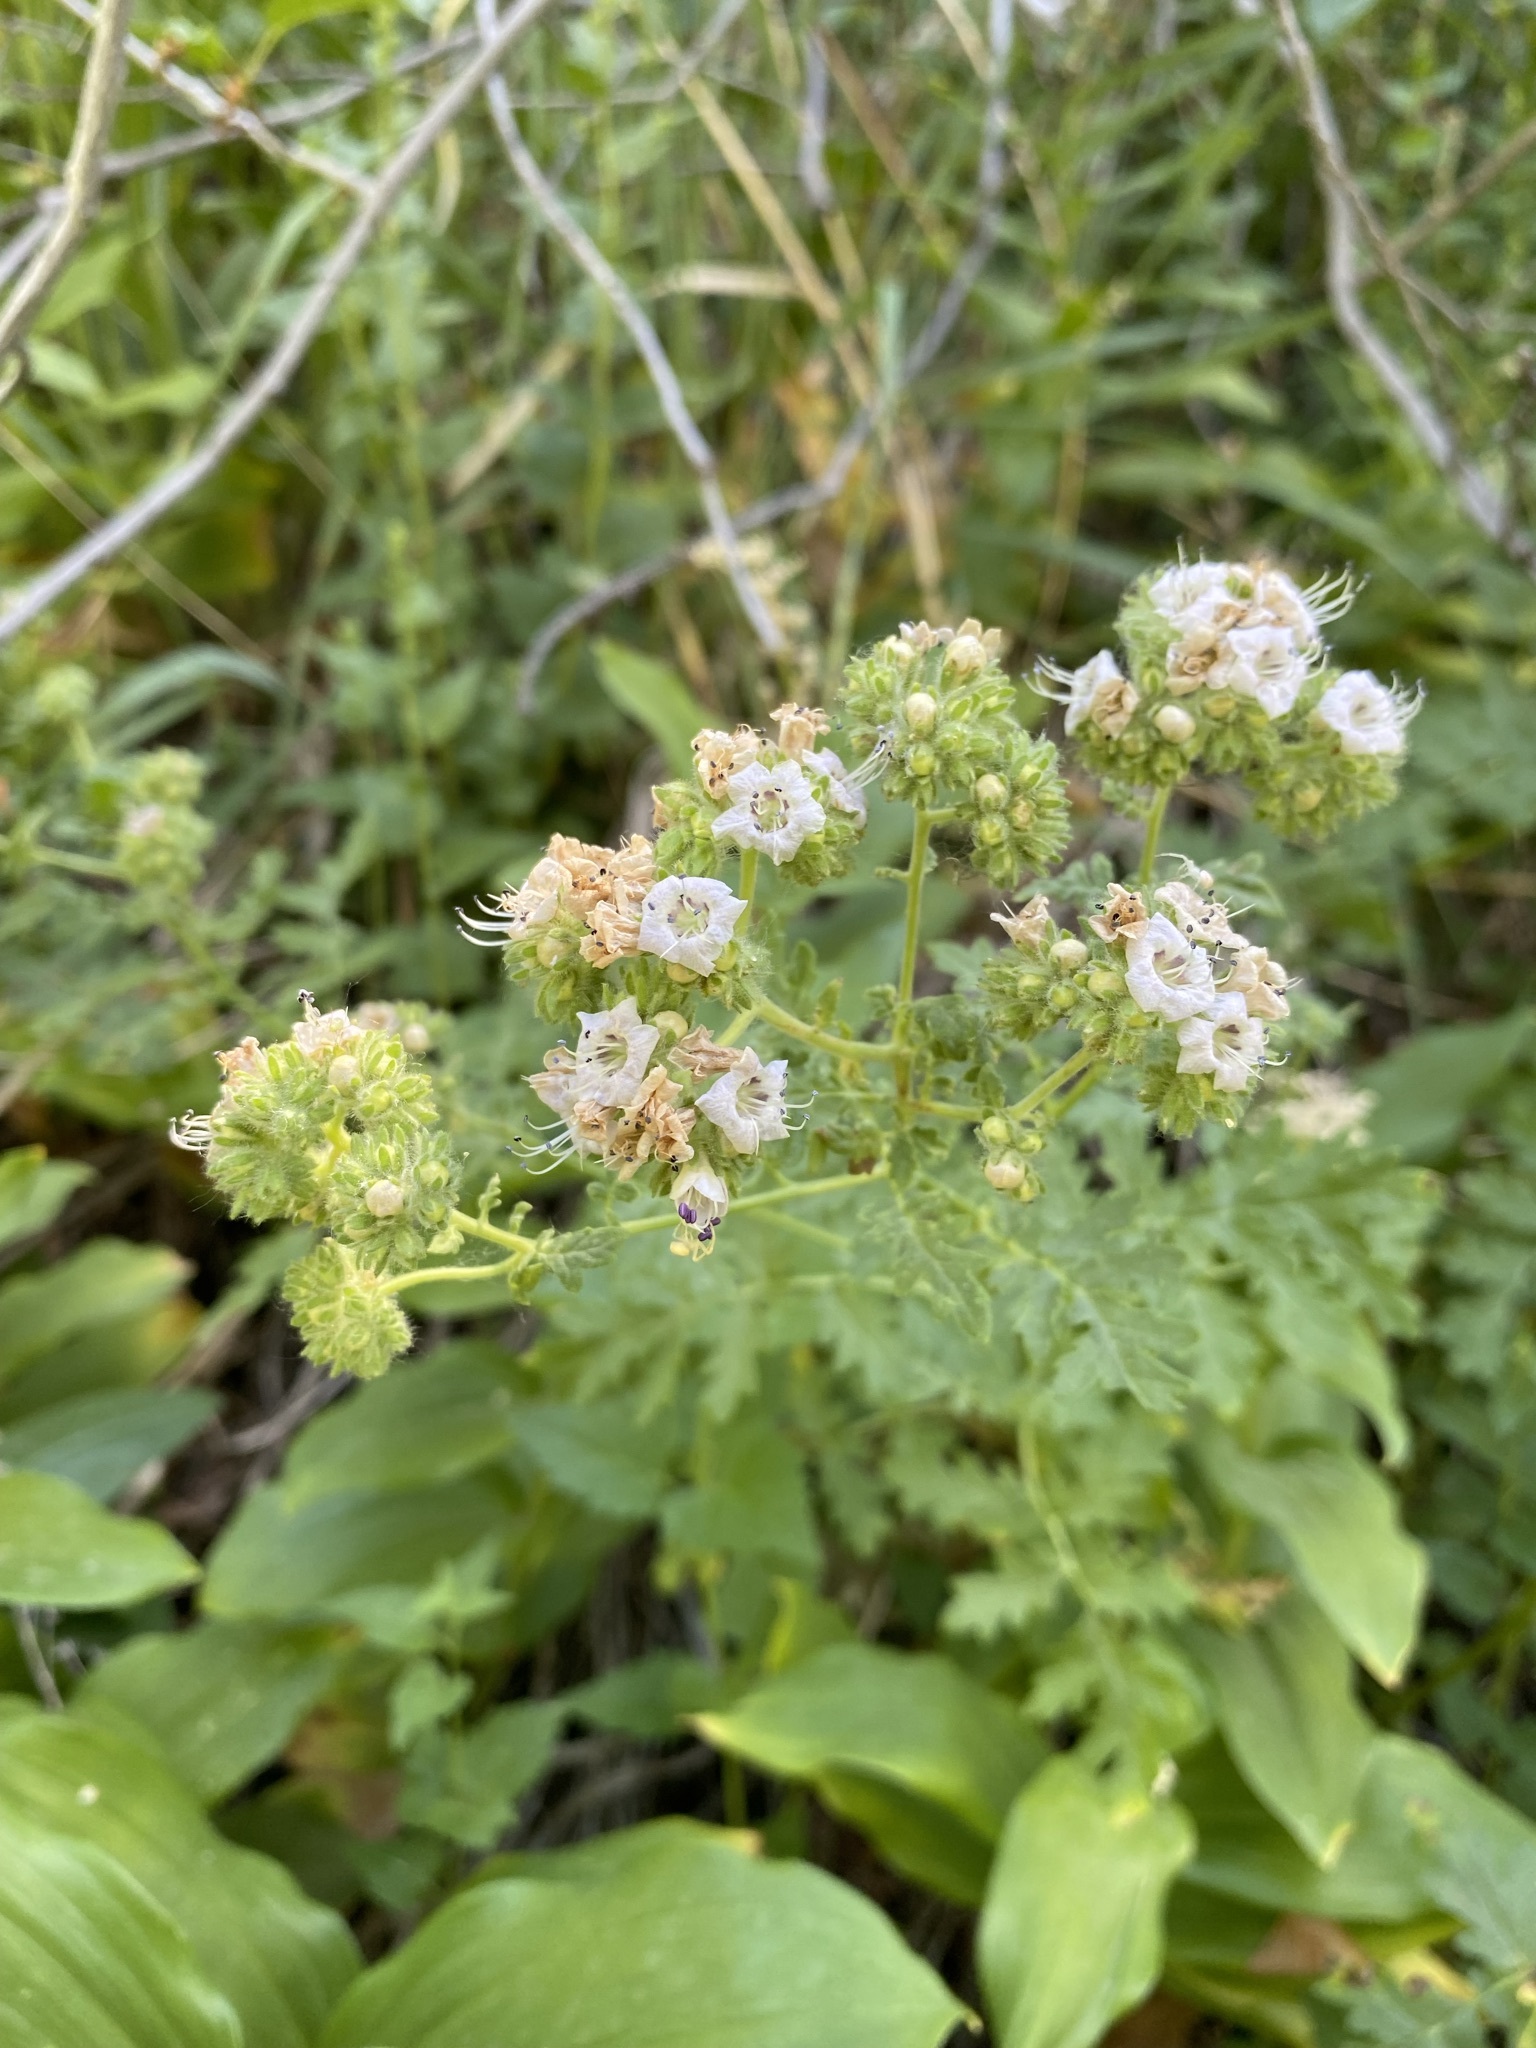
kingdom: Plantae
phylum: Tracheophyta
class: Magnoliopsida
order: Boraginales
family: Hydrophyllaceae
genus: Phacelia
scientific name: Phacelia ramosissima
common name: Branching phacelia
